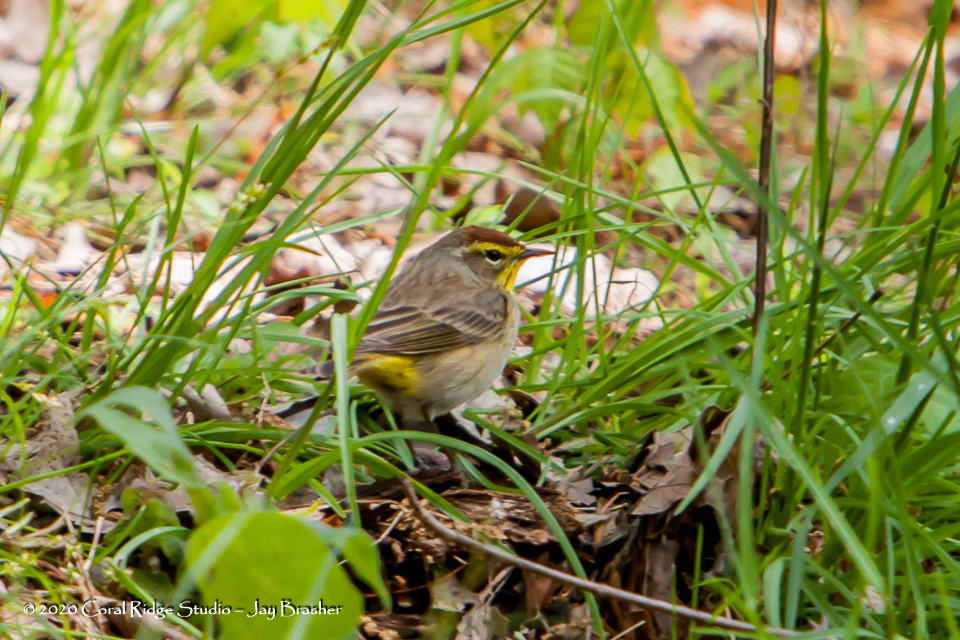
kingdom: Animalia
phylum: Chordata
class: Aves
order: Passeriformes
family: Parulidae
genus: Setophaga
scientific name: Setophaga palmarum
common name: Palm warbler
